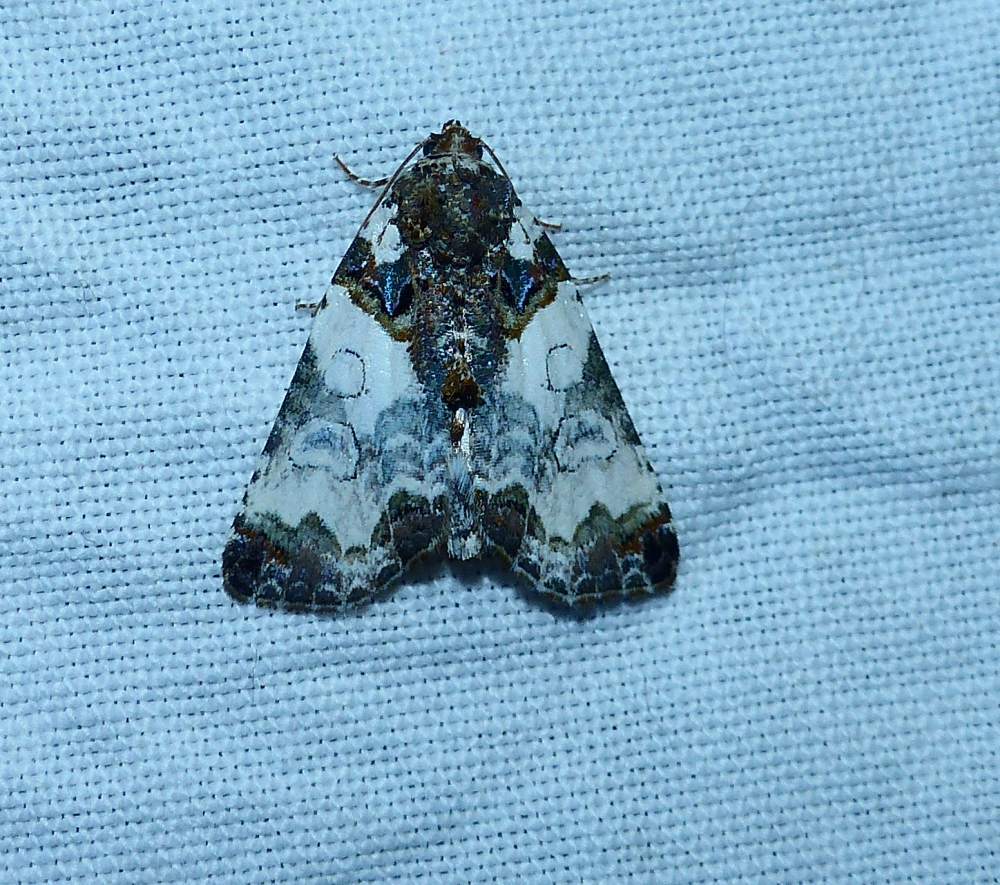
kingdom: Animalia
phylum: Arthropoda
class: Insecta
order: Lepidoptera
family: Noctuidae
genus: Cerma
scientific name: Cerma cerintha
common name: Tufted bird-dropping moth
